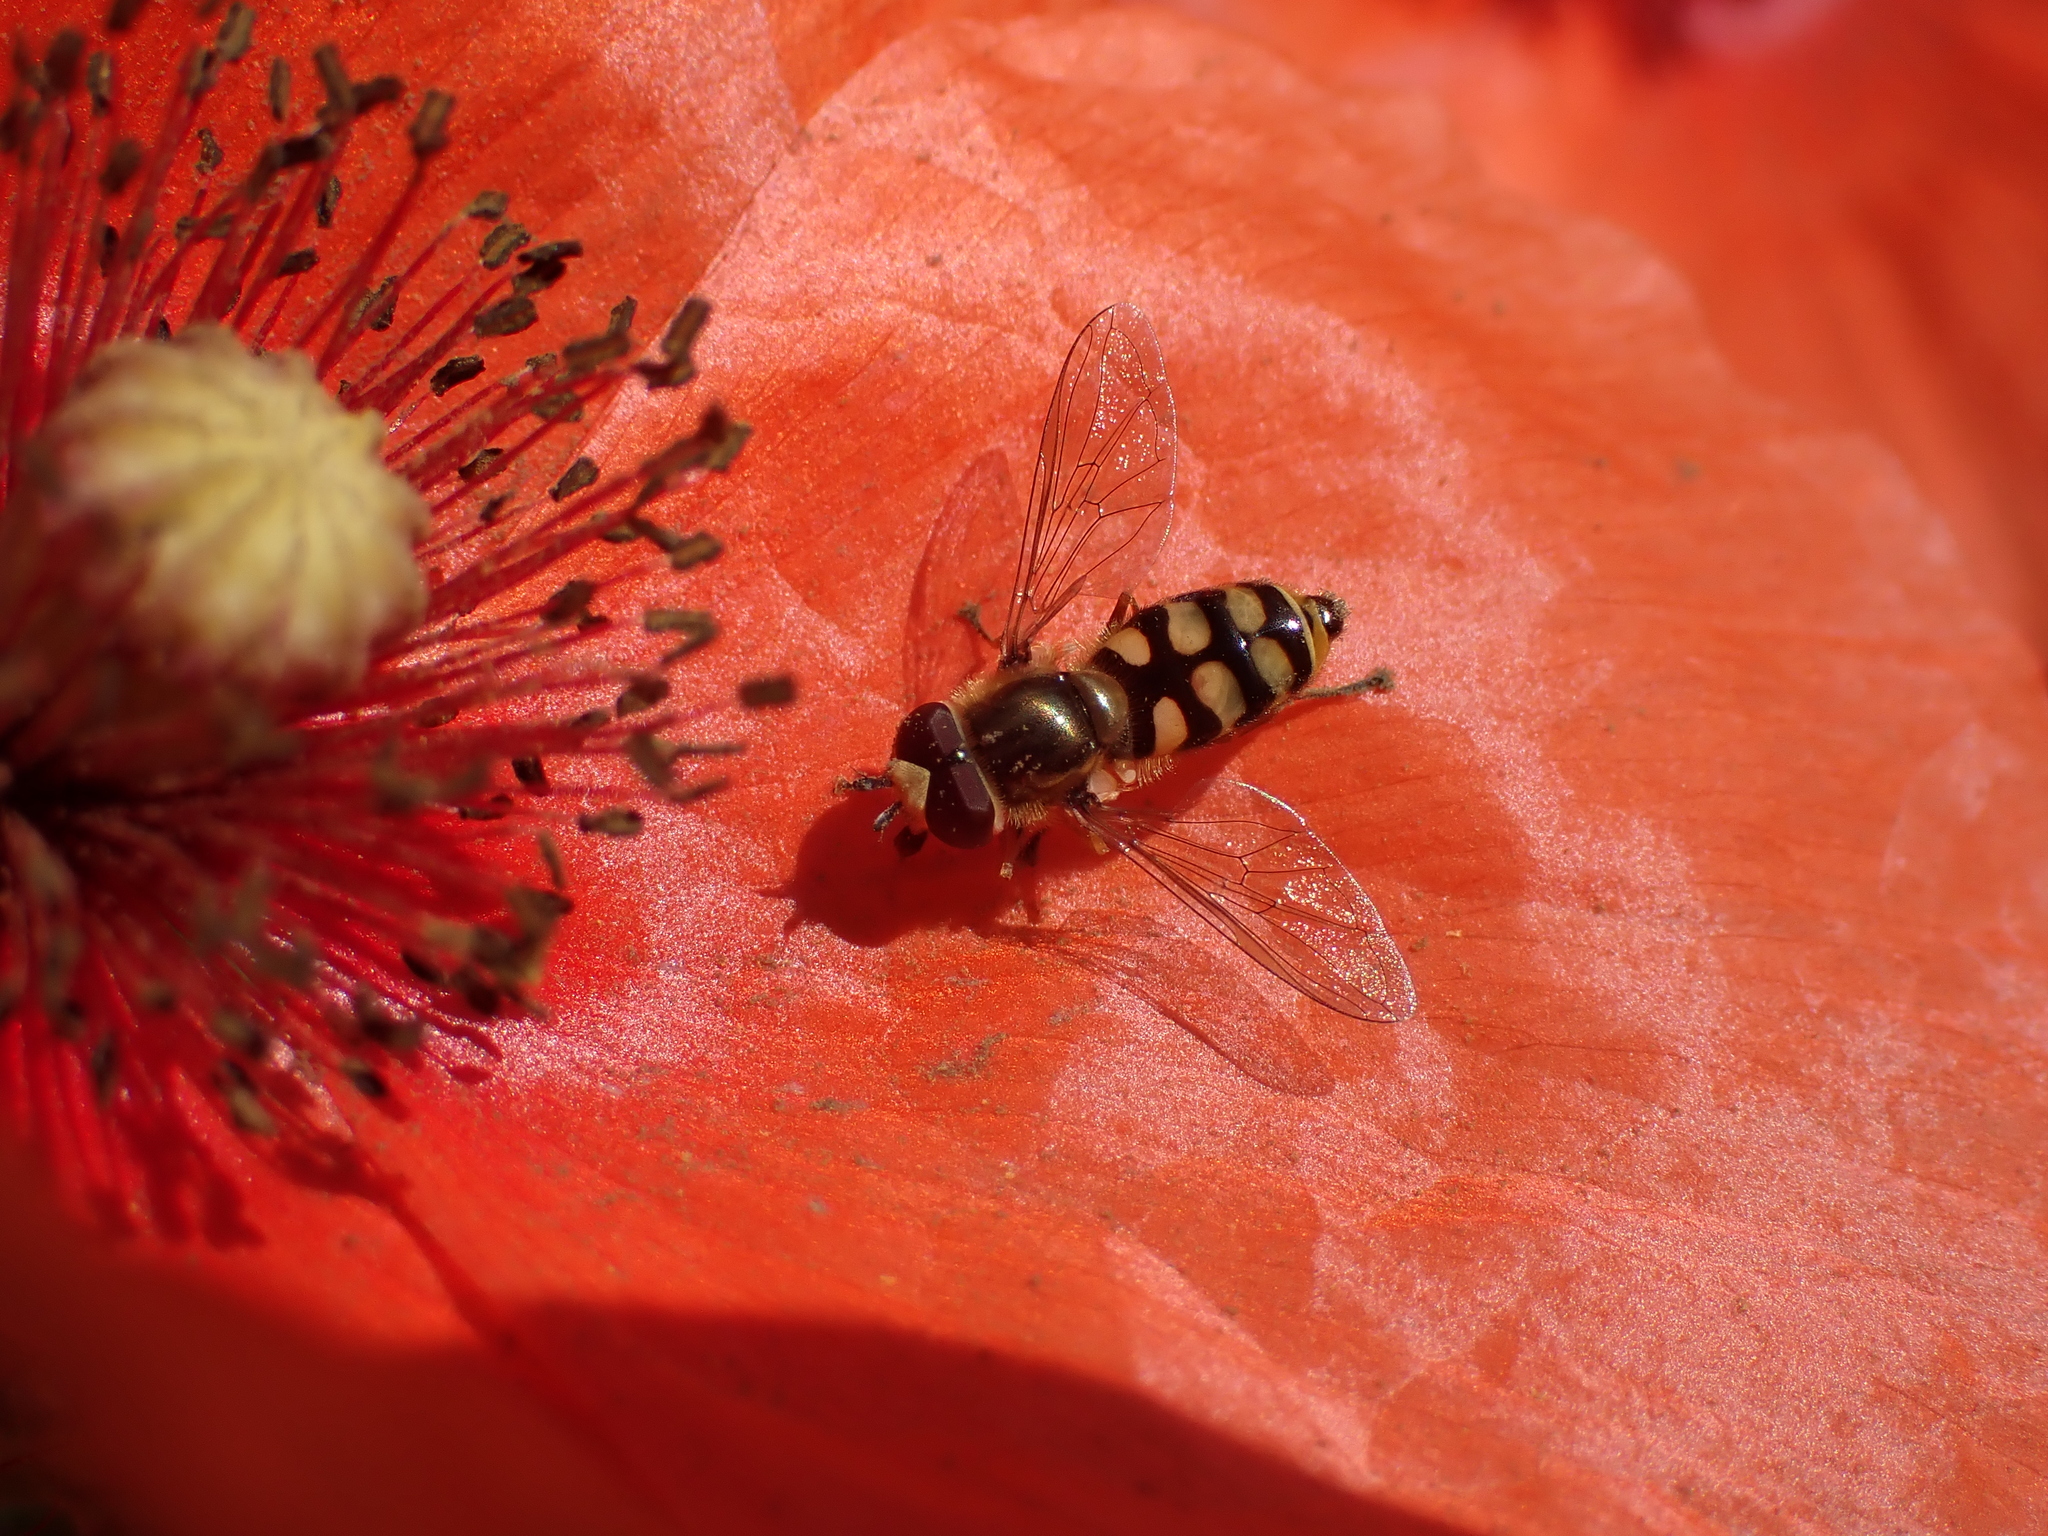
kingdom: Animalia
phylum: Arthropoda
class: Insecta
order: Diptera
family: Syrphidae
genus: Eupeodes
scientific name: Eupeodes corollae
